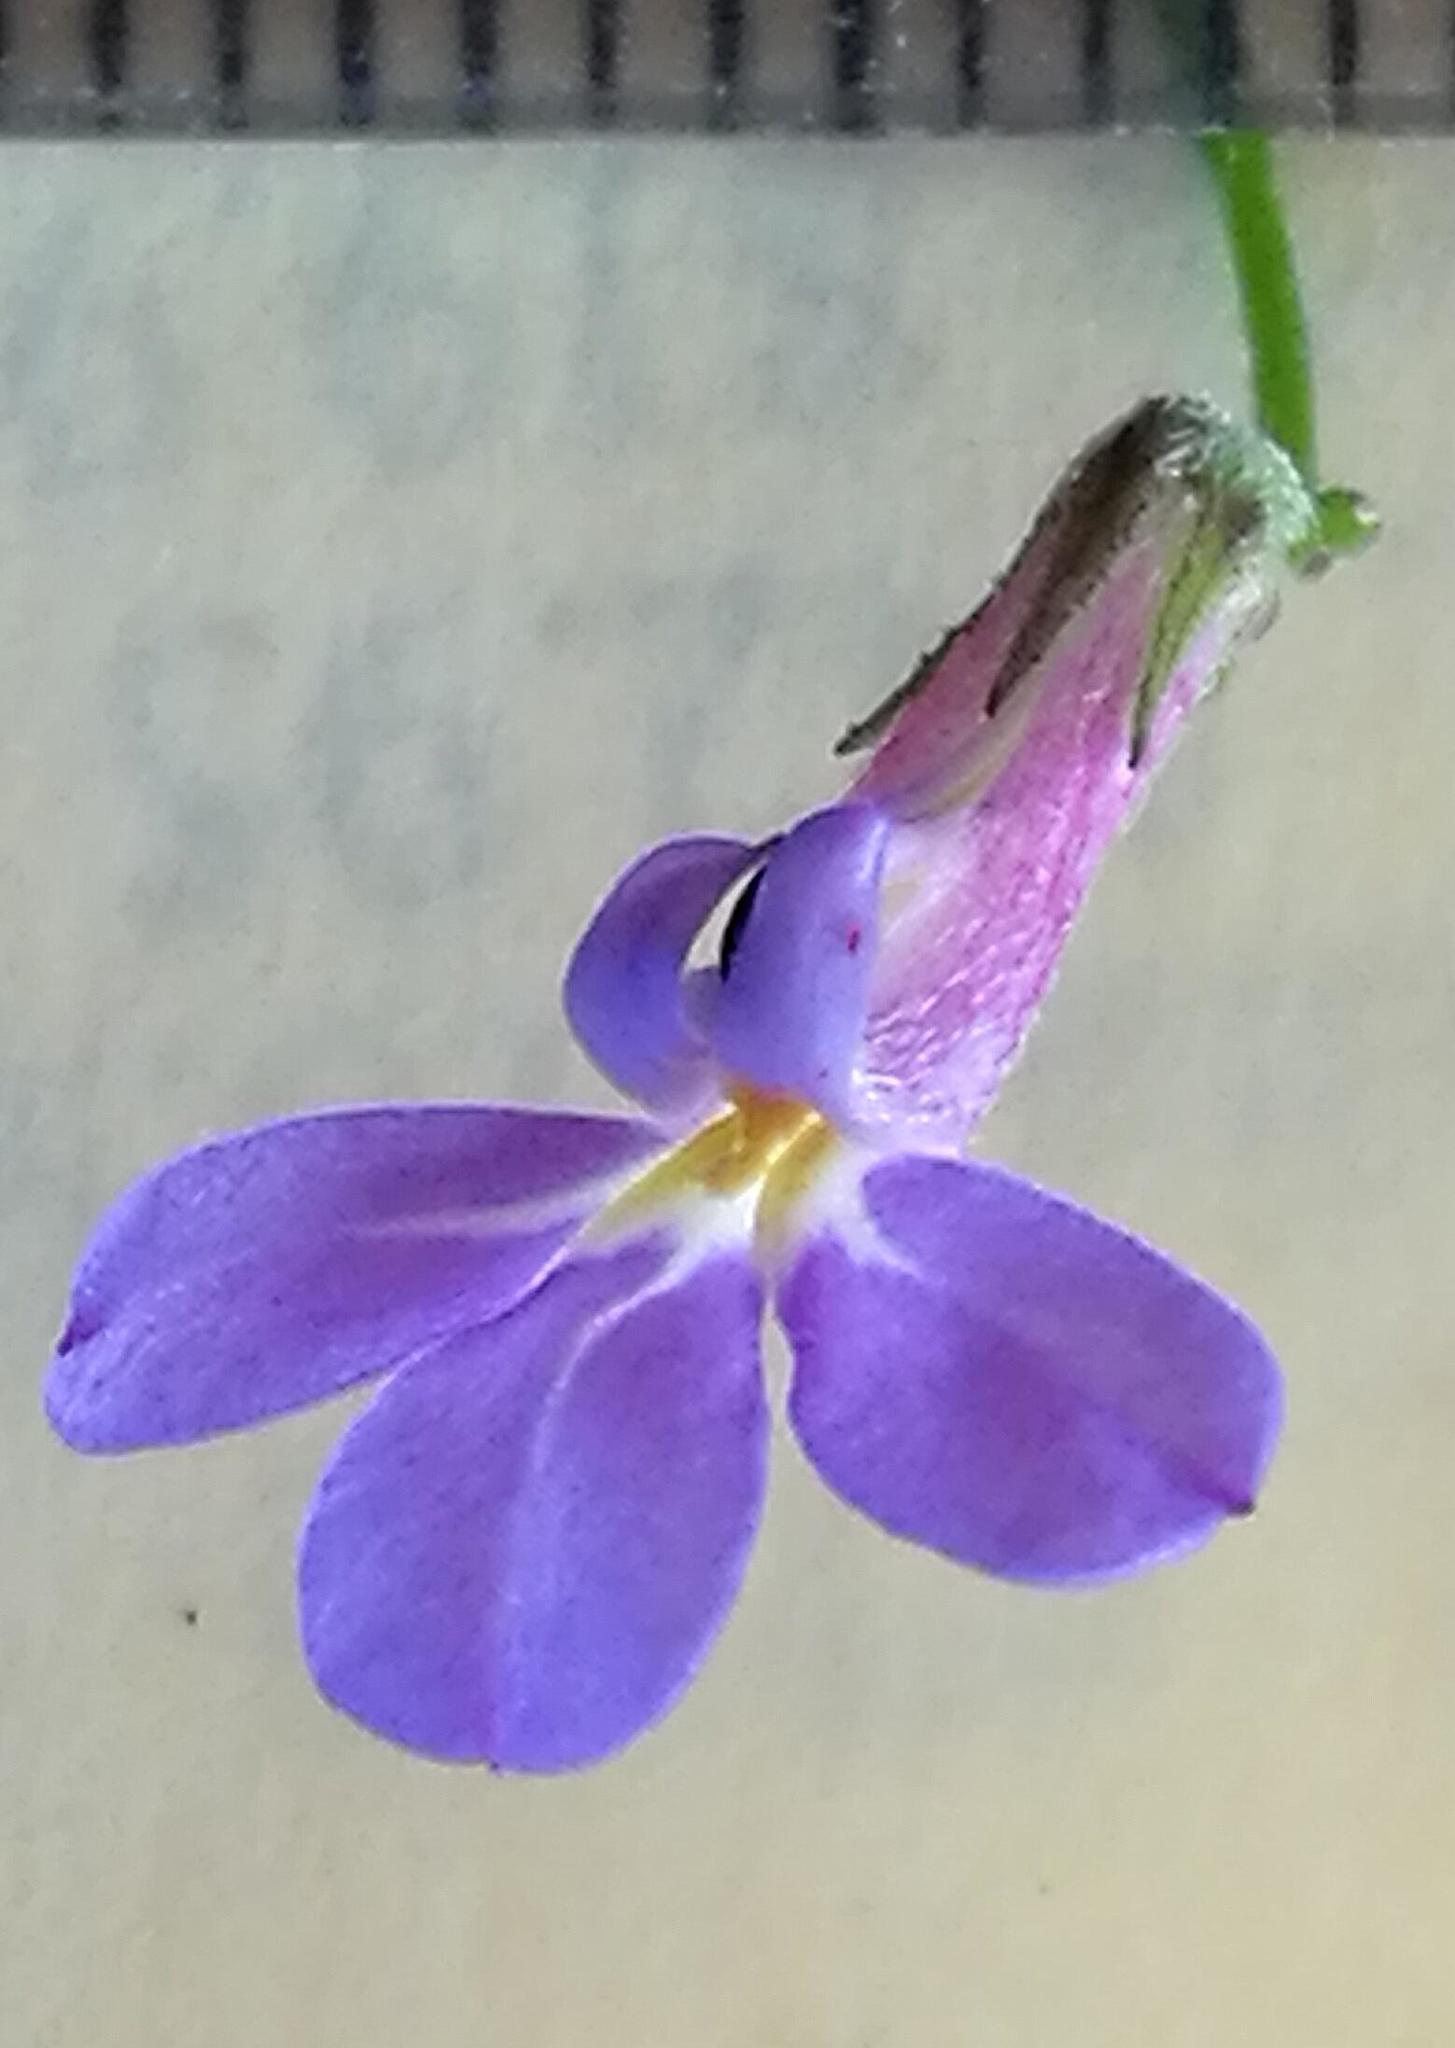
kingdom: Plantae
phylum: Tracheophyta
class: Magnoliopsida
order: Asterales
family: Campanulaceae
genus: Lobelia
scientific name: Lobelia neglecta
